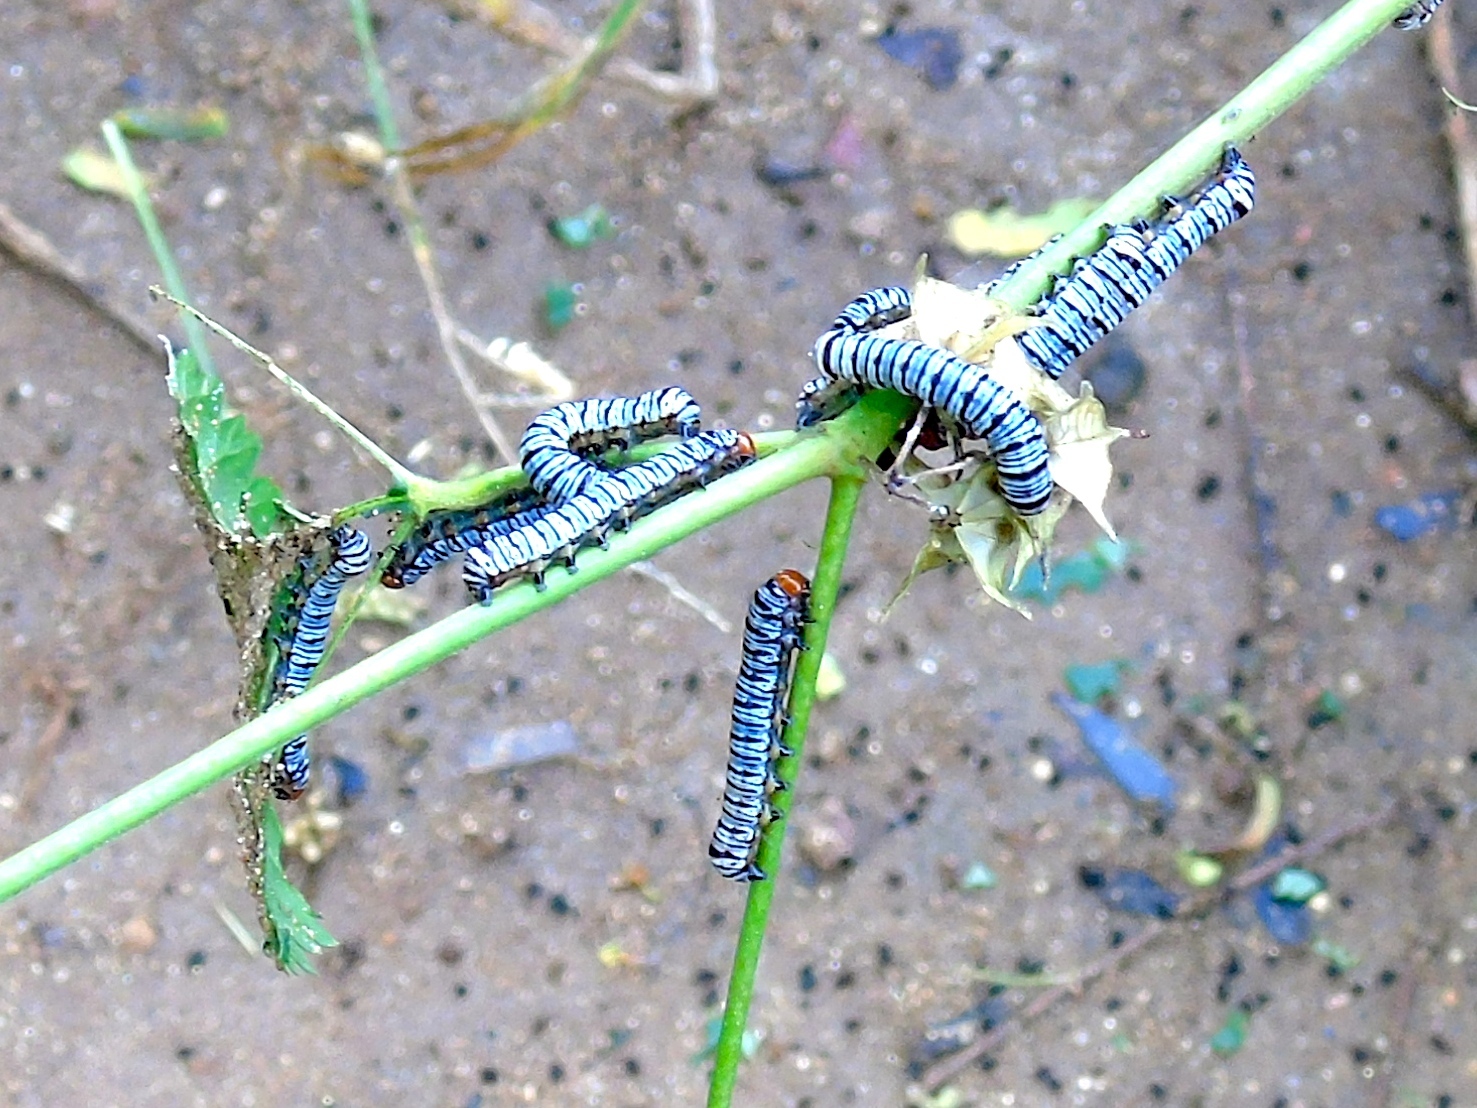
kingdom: Animalia
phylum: Arthropoda
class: Insecta
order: Lepidoptera
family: Erebidae
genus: Diphthera
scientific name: Diphthera festiva
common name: Hieroglyphic moth
